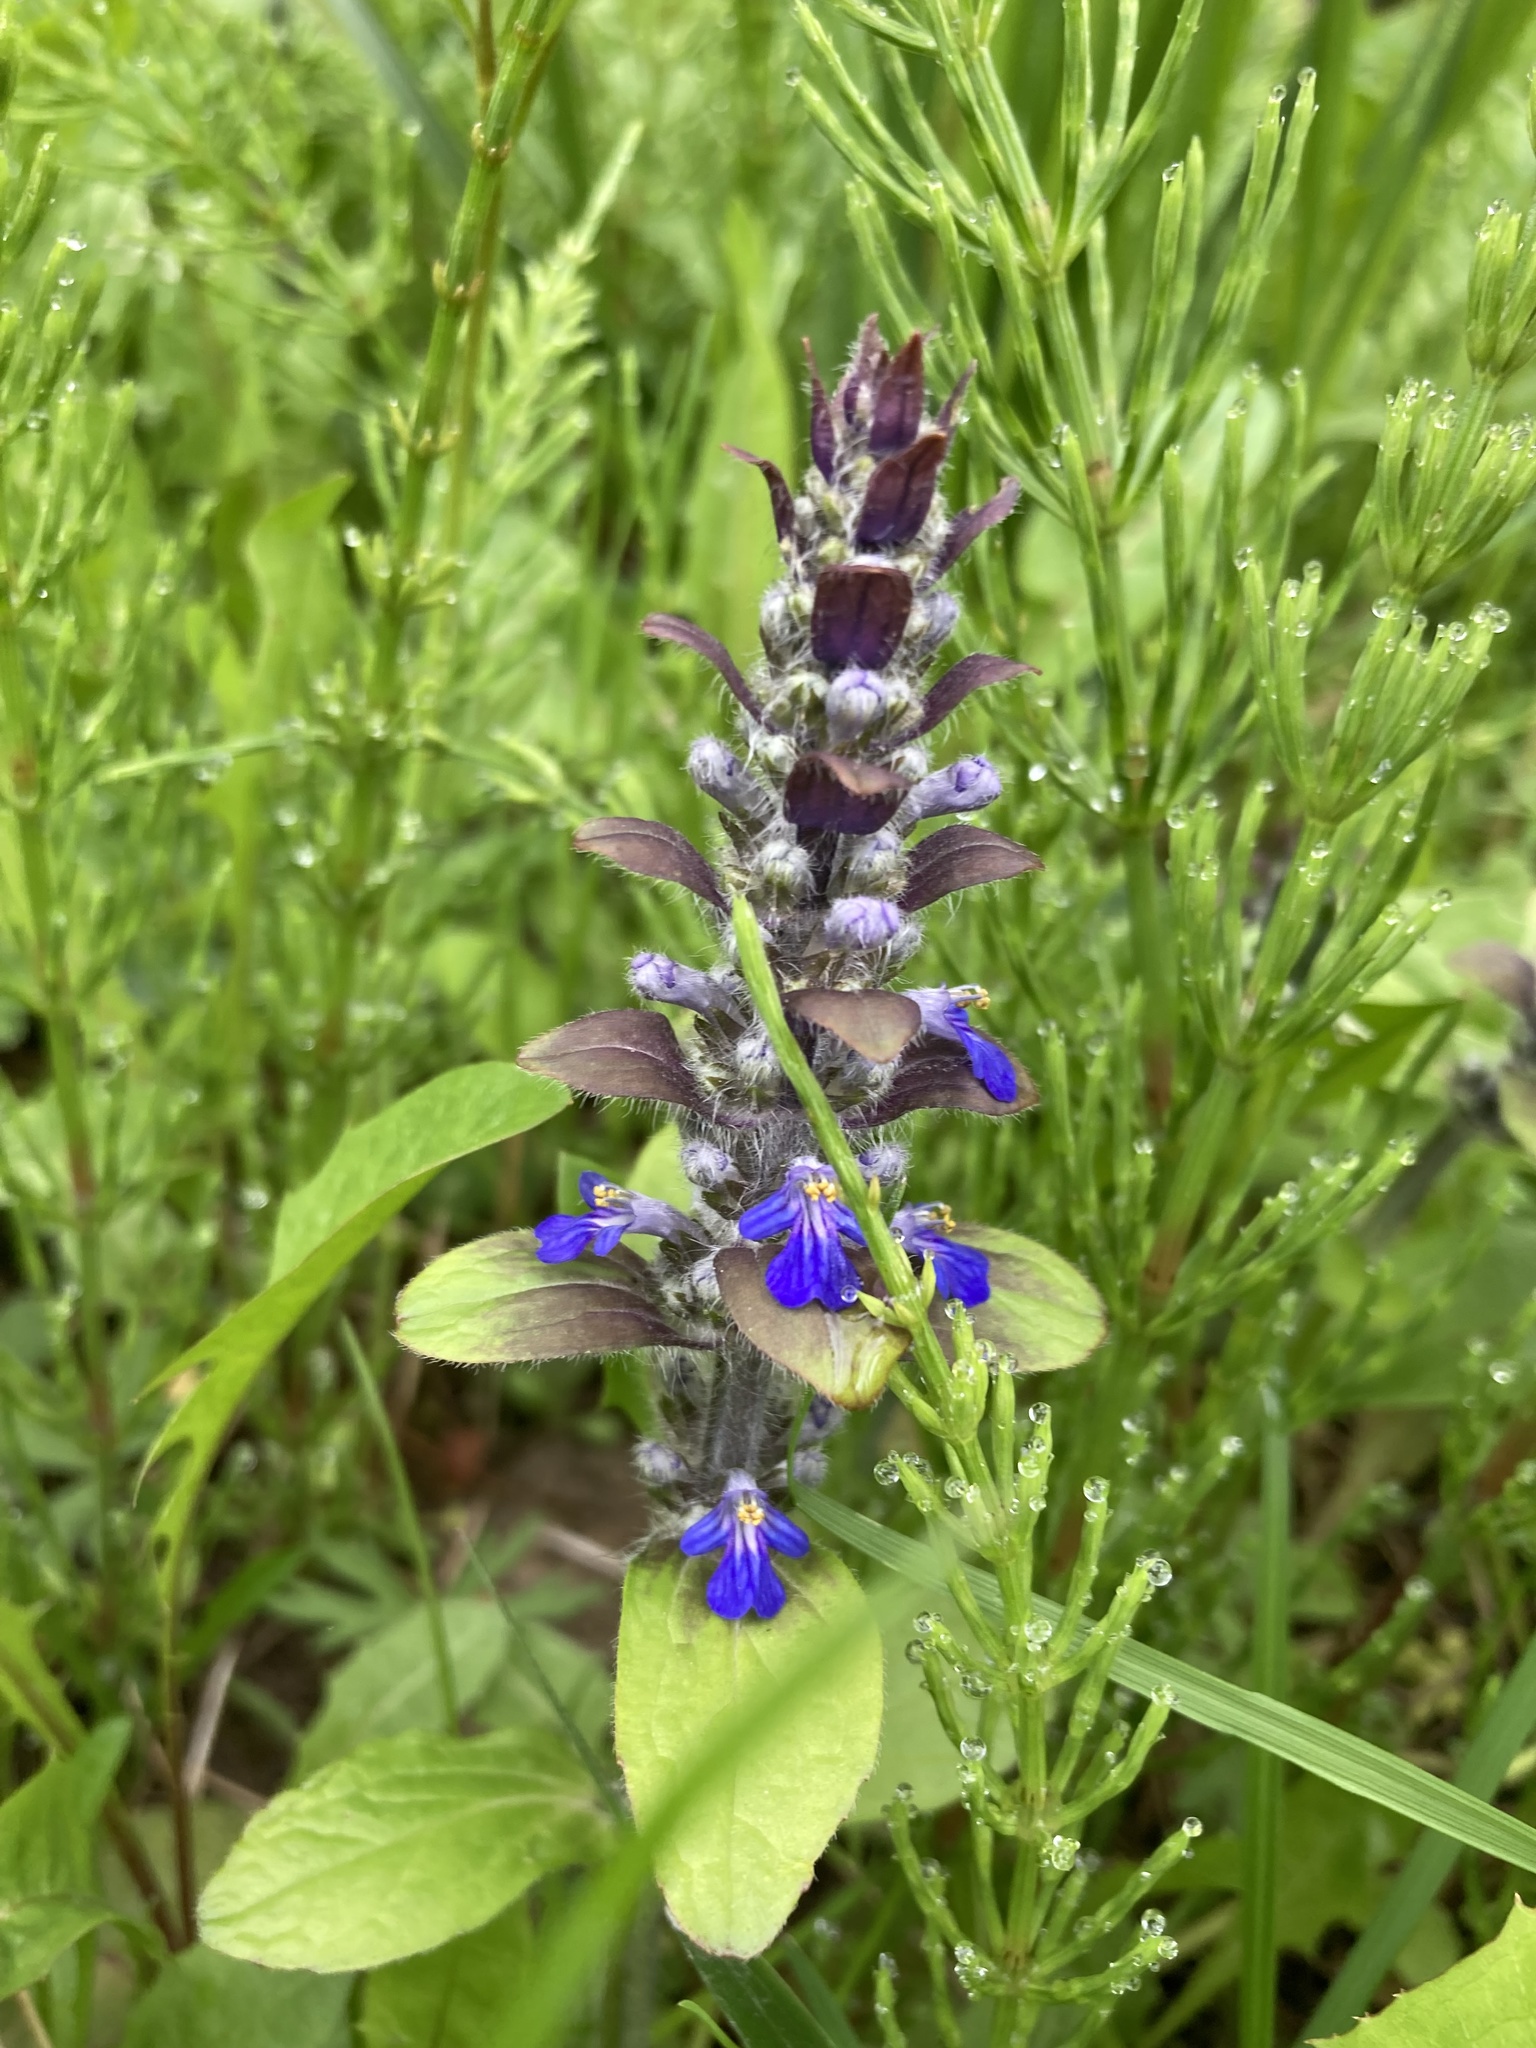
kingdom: Plantae
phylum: Tracheophyta
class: Magnoliopsida
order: Lamiales
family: Lamiaceae
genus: Ajuga
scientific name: Ajuga reptans
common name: Bugle
